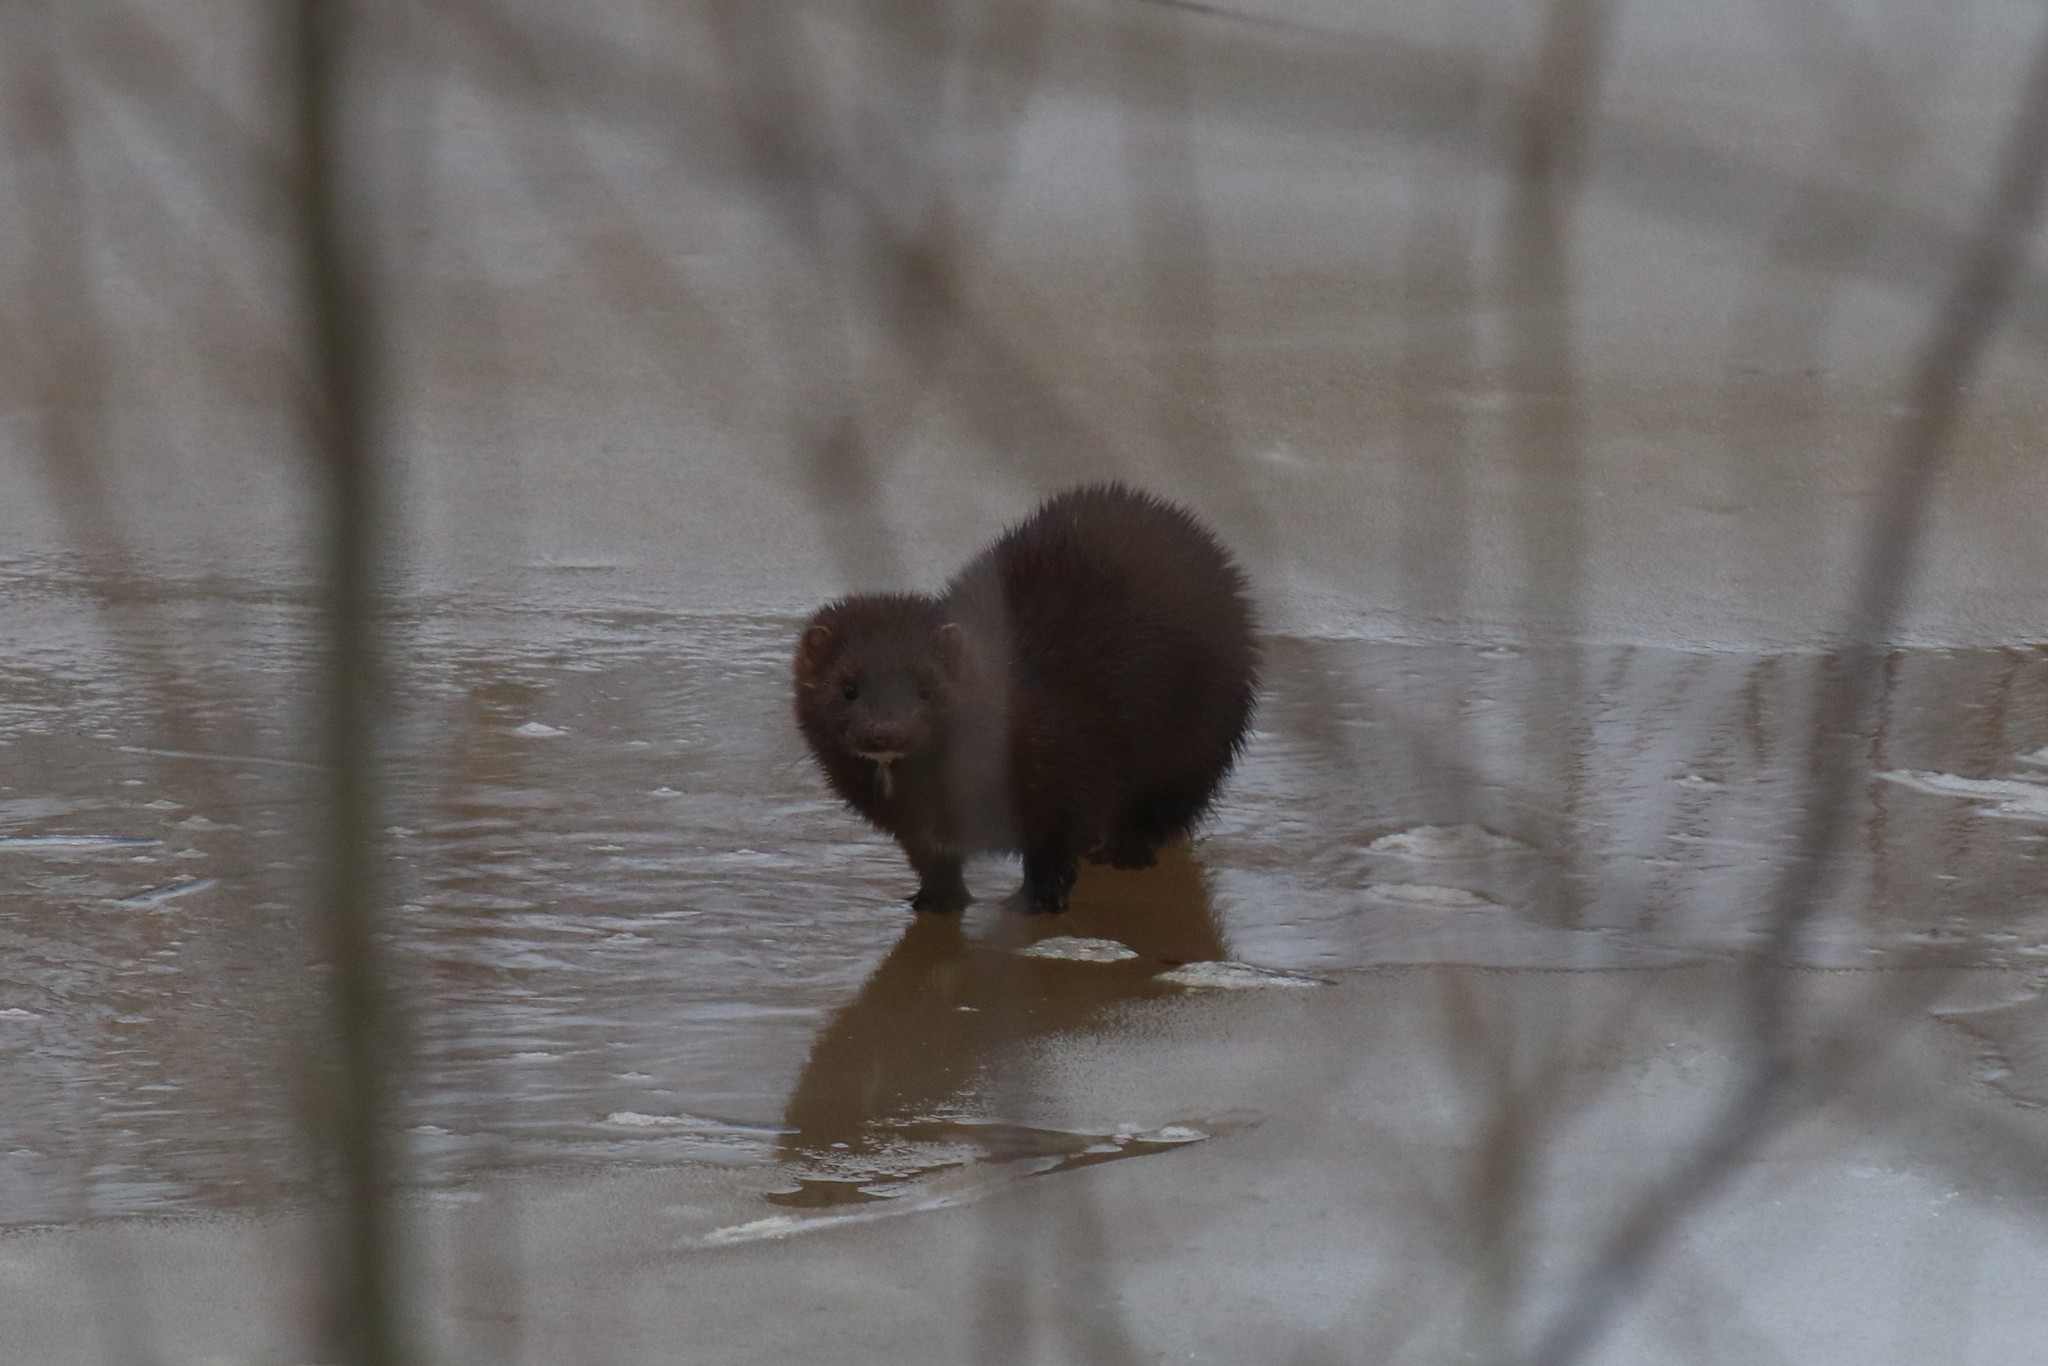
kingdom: Animalia
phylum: Chordata
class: Mammalia
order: Carnivora
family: Mustelidae
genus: Mustela
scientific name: Mustela
